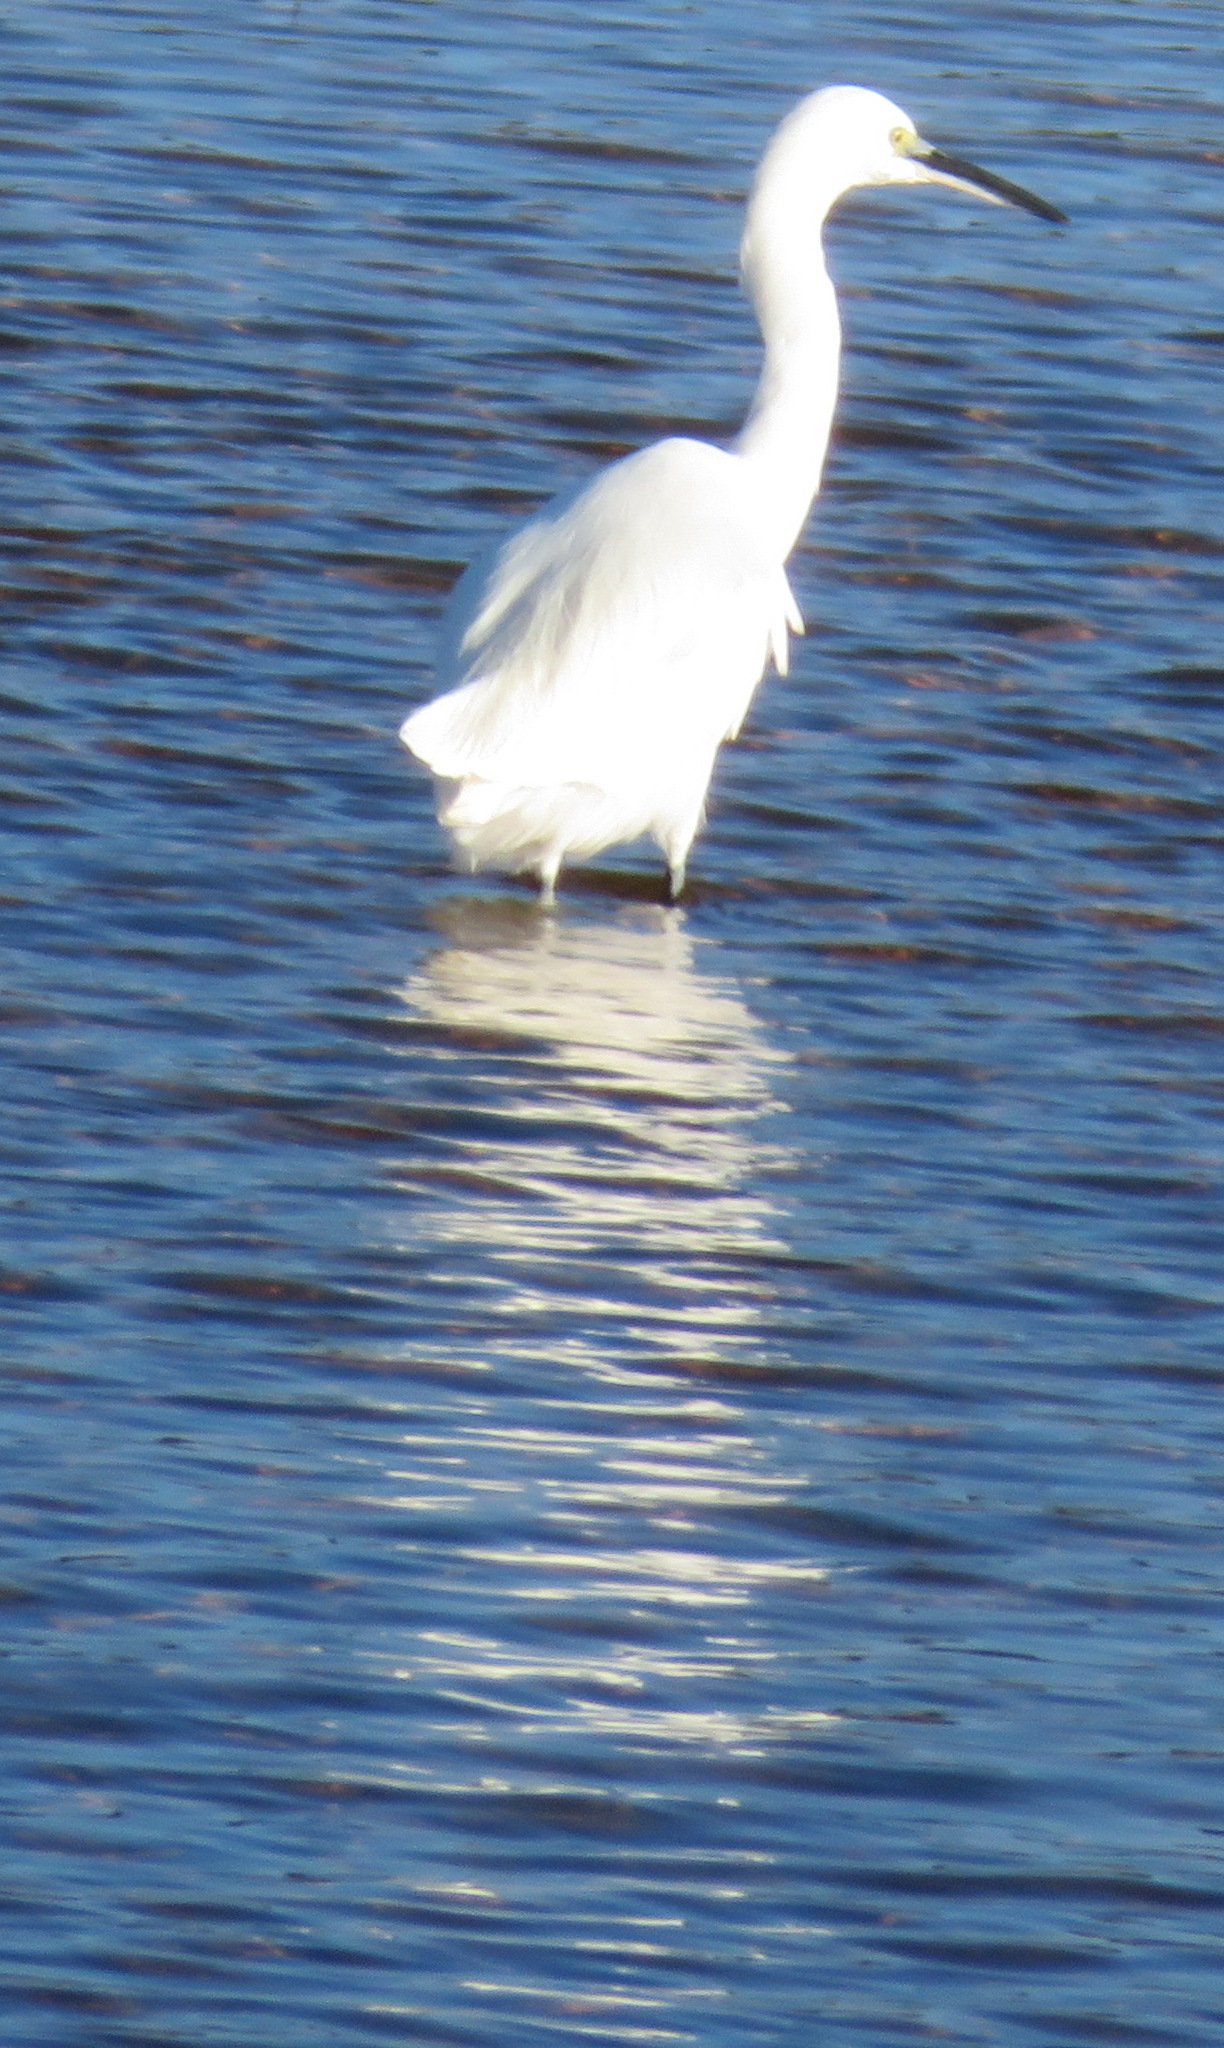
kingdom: Animalia
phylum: Chordata
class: Aves
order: Pelecaniformes
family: Ardeidae
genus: Egretta
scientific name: Egretta garzetta
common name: Little egret
